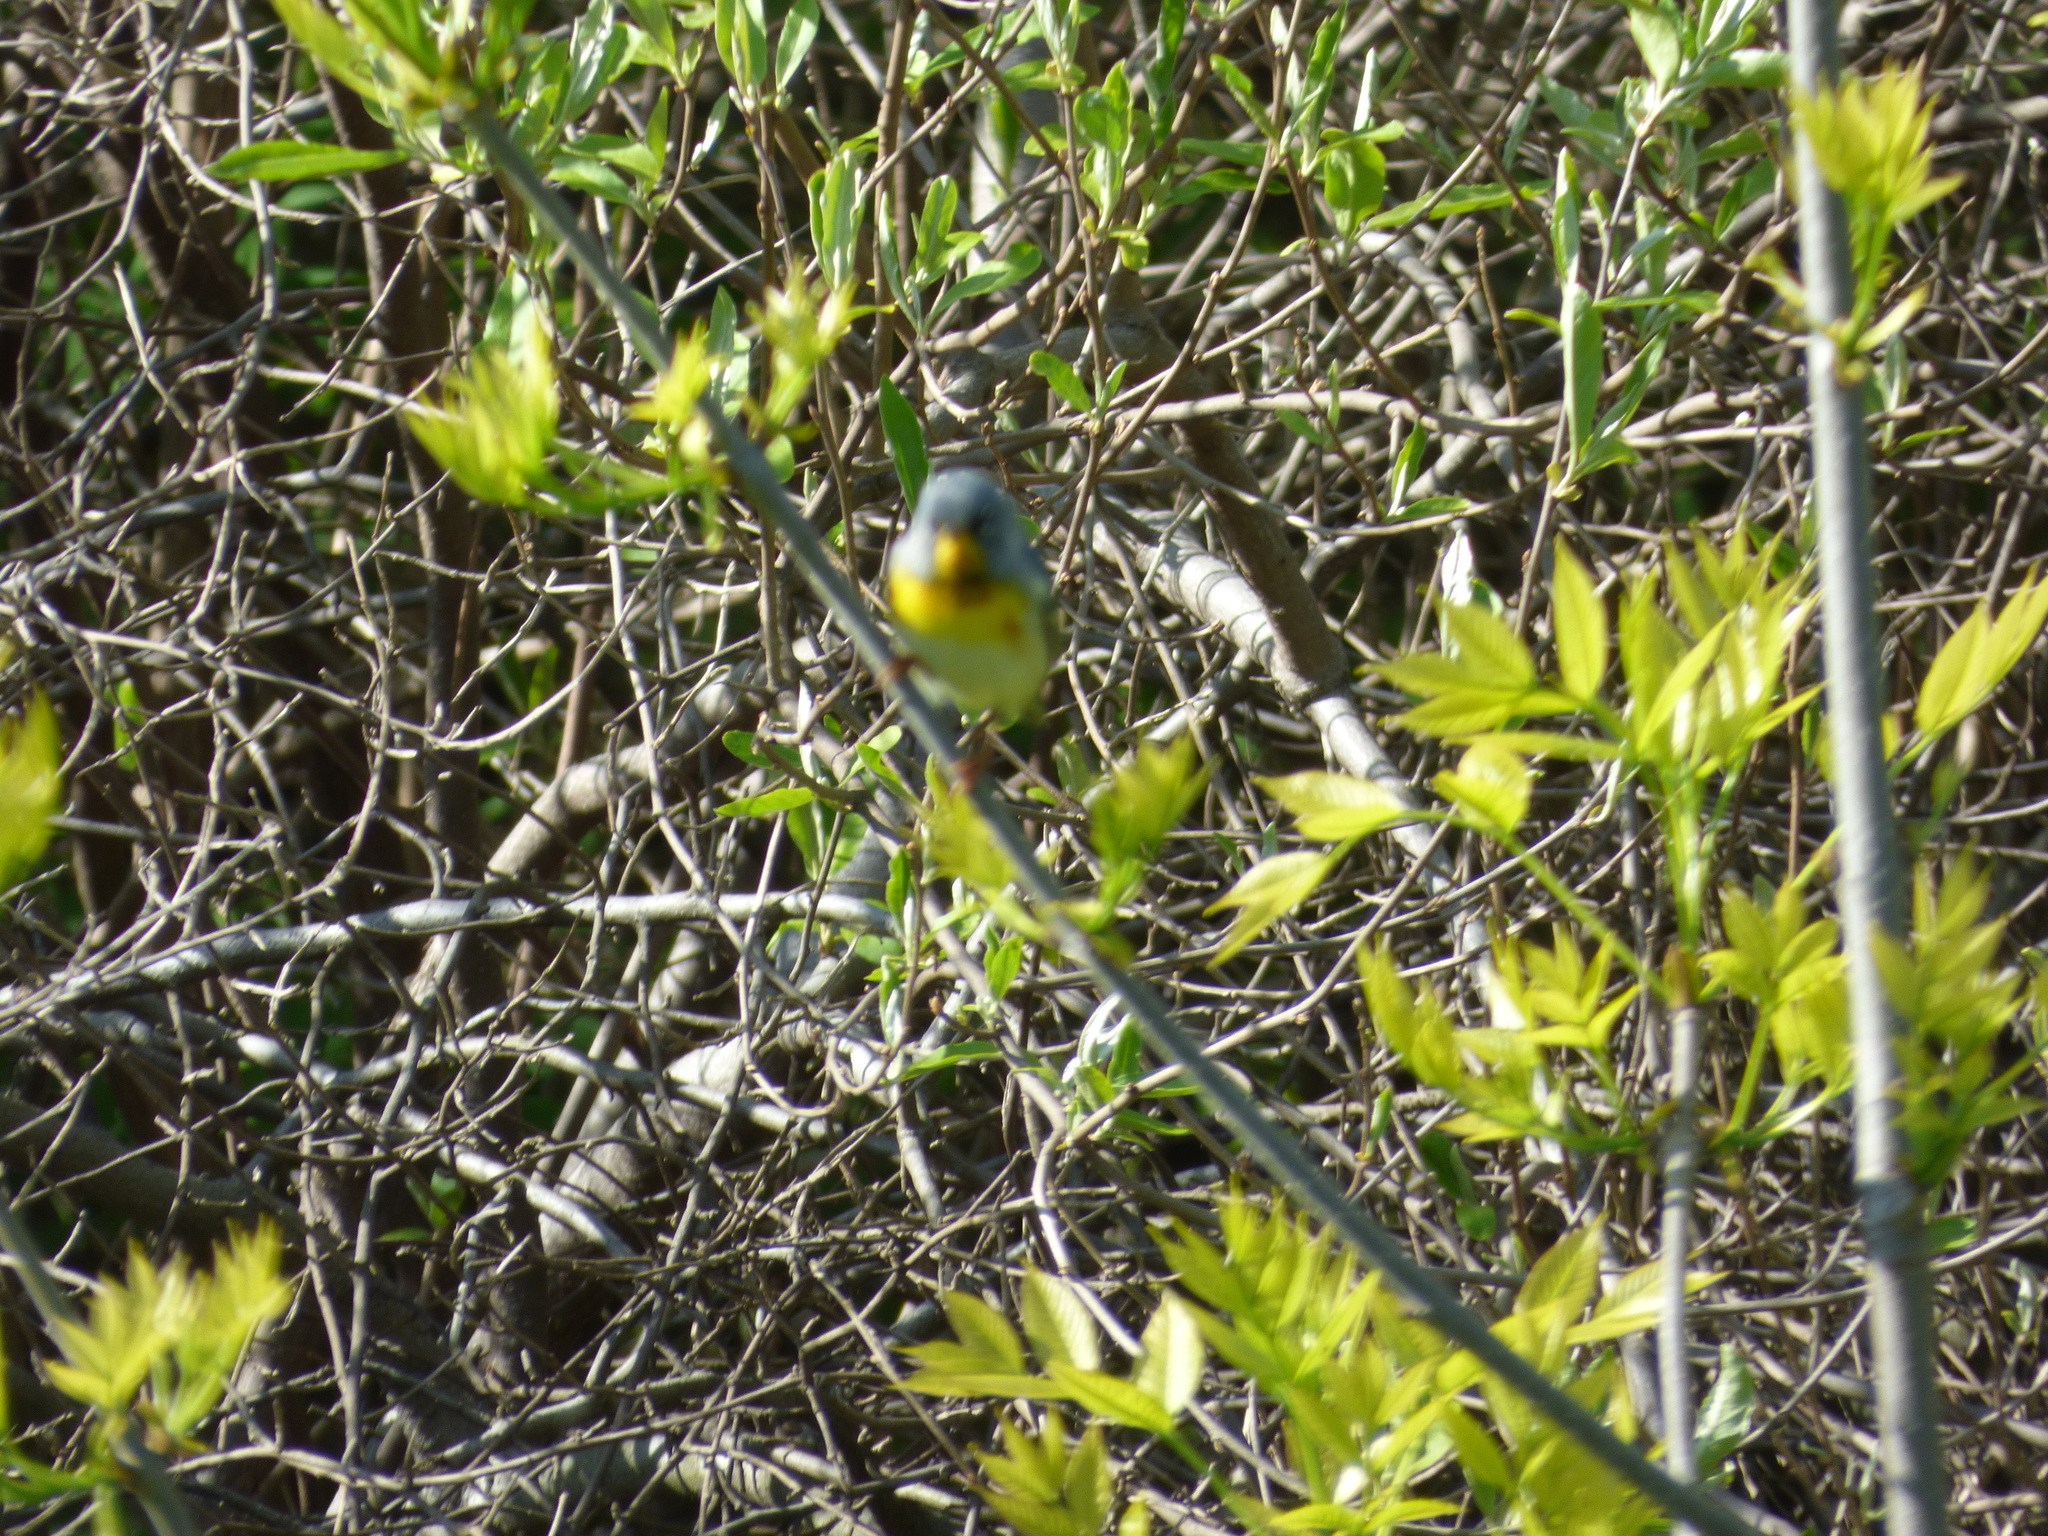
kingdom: Animalia
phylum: Chordata
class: Aves
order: Passeriformes
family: Parulidae
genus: Setophaga
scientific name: Setophaga americana
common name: Northern parula
